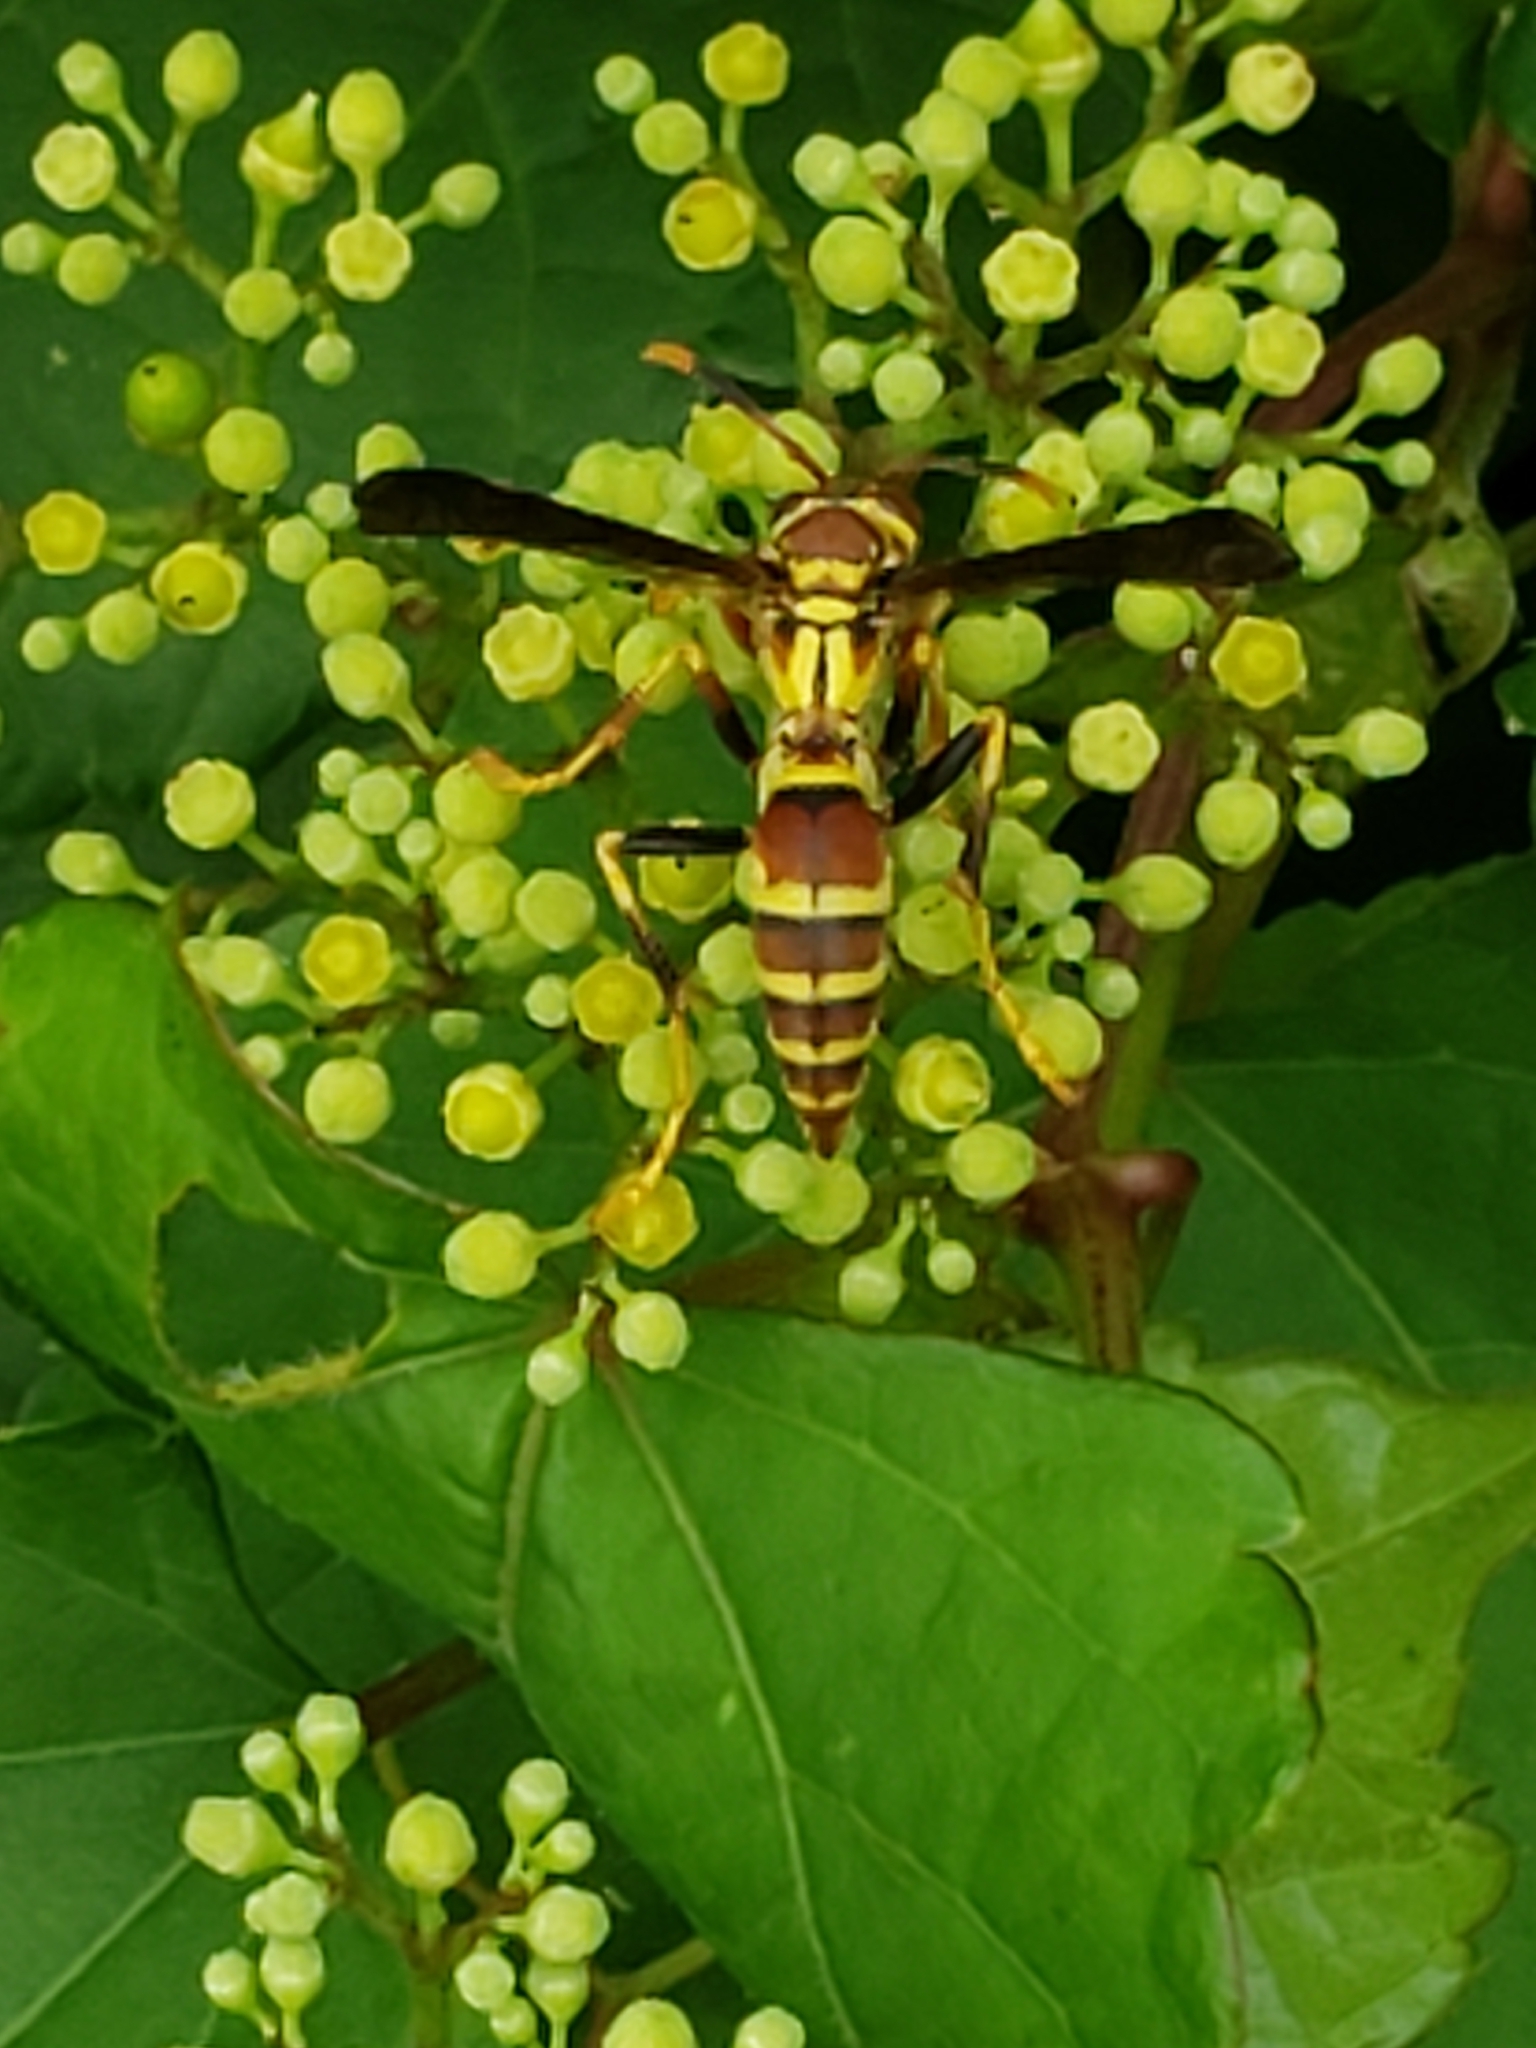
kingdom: Animalia
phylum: Arthropoda
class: Insecta
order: Hymenoptera
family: Eumenidae
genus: Polistes
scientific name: Polistes exclamans
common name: Paper wasp
